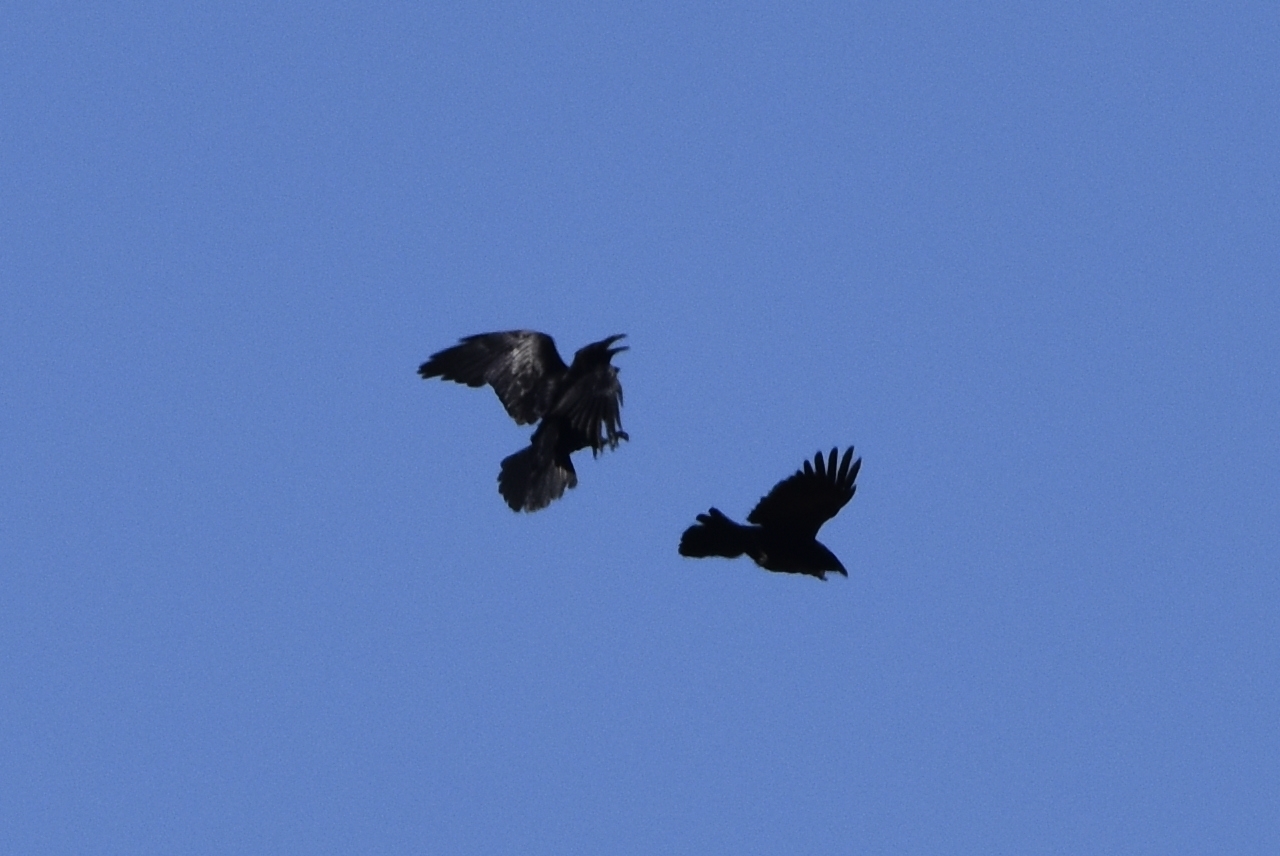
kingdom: Animalia
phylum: Chordata
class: Aves
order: Passeriformes
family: Corvidae
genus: Corvus
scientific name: Corvus corax
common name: Common raven
